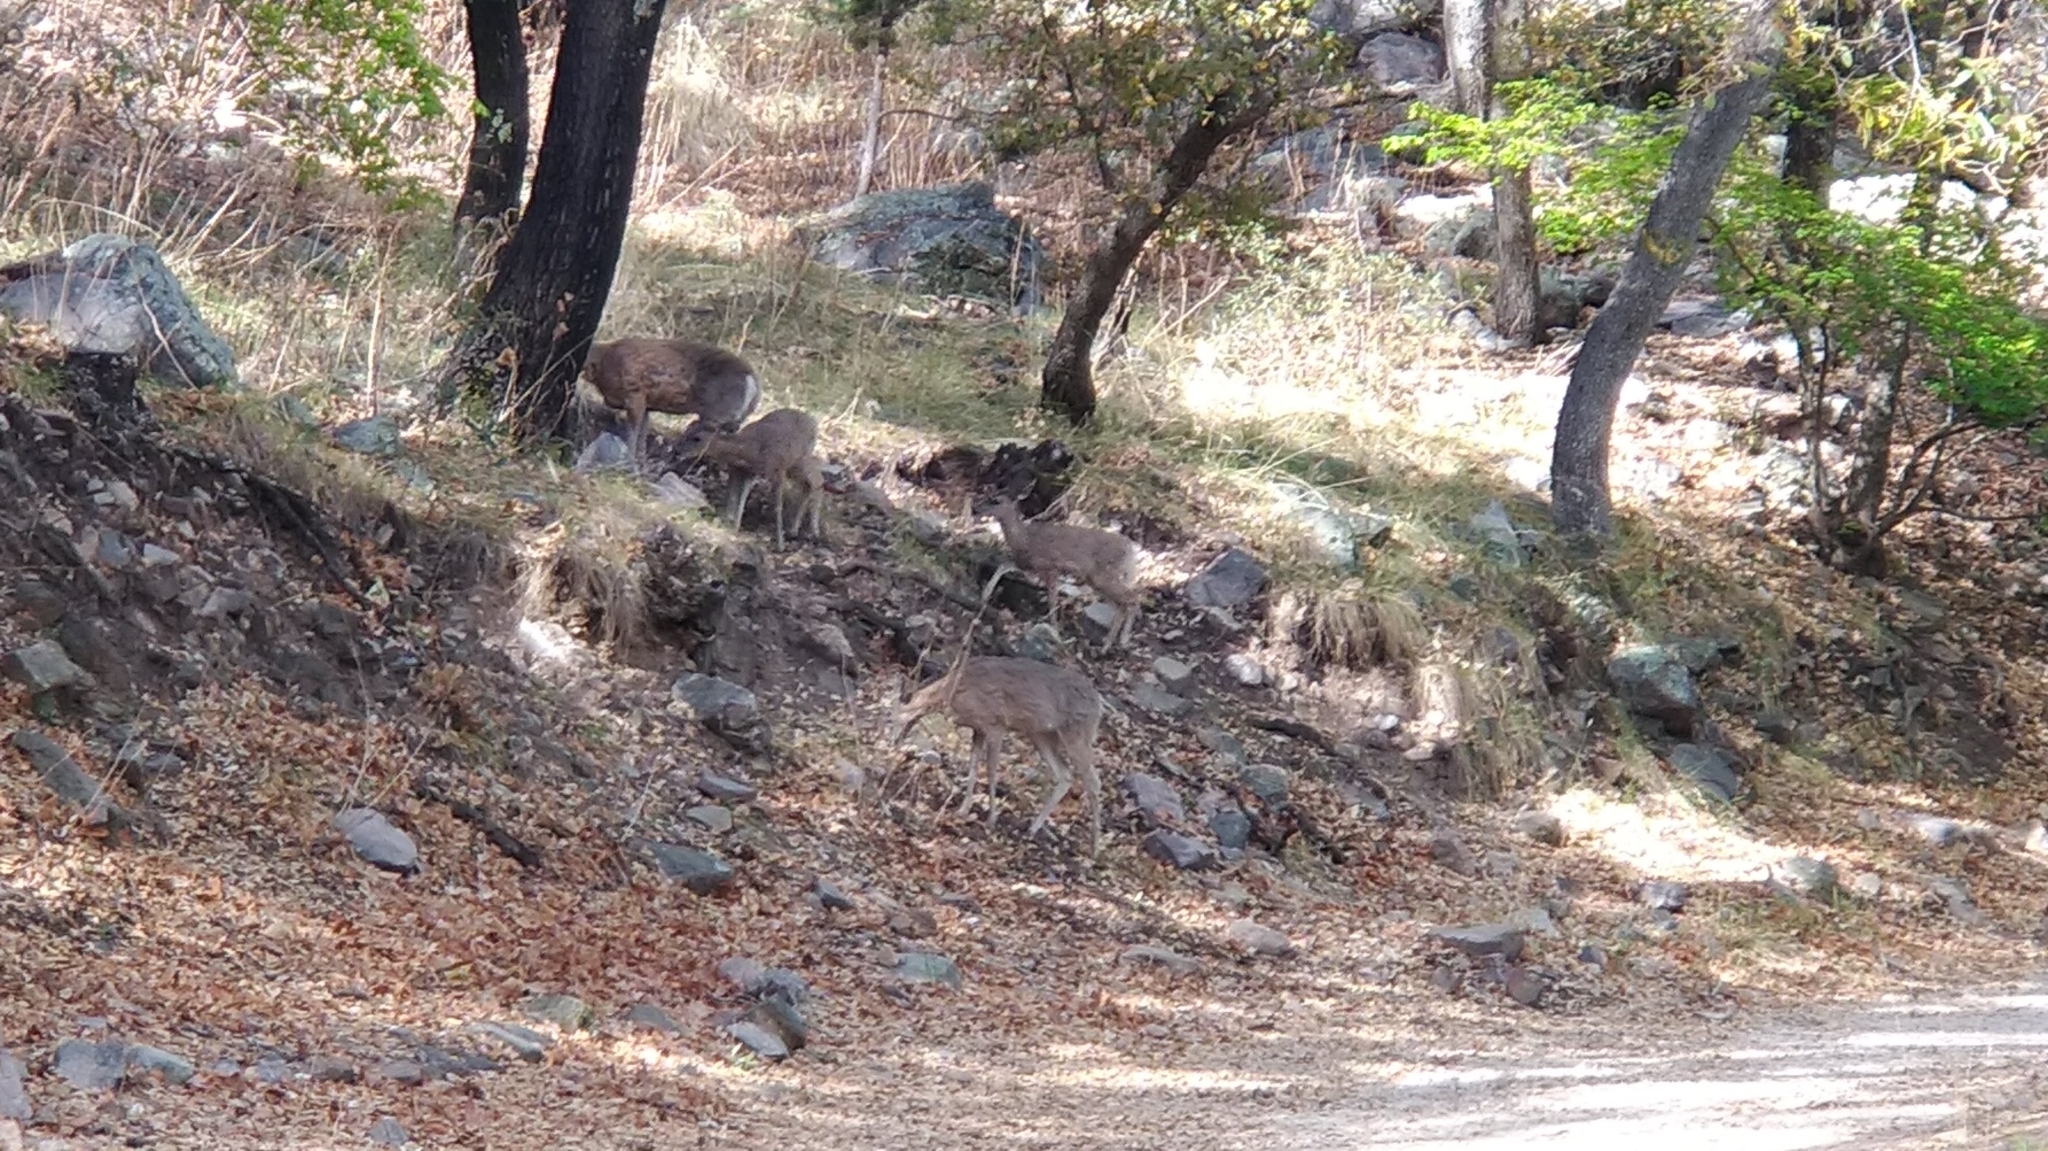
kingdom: Animalia
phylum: Chordata
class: Mammalia
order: Artiodactyla
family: Cervidae
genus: Odocoileus
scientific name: Odocoileus virginianus
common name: White-tailed deer
